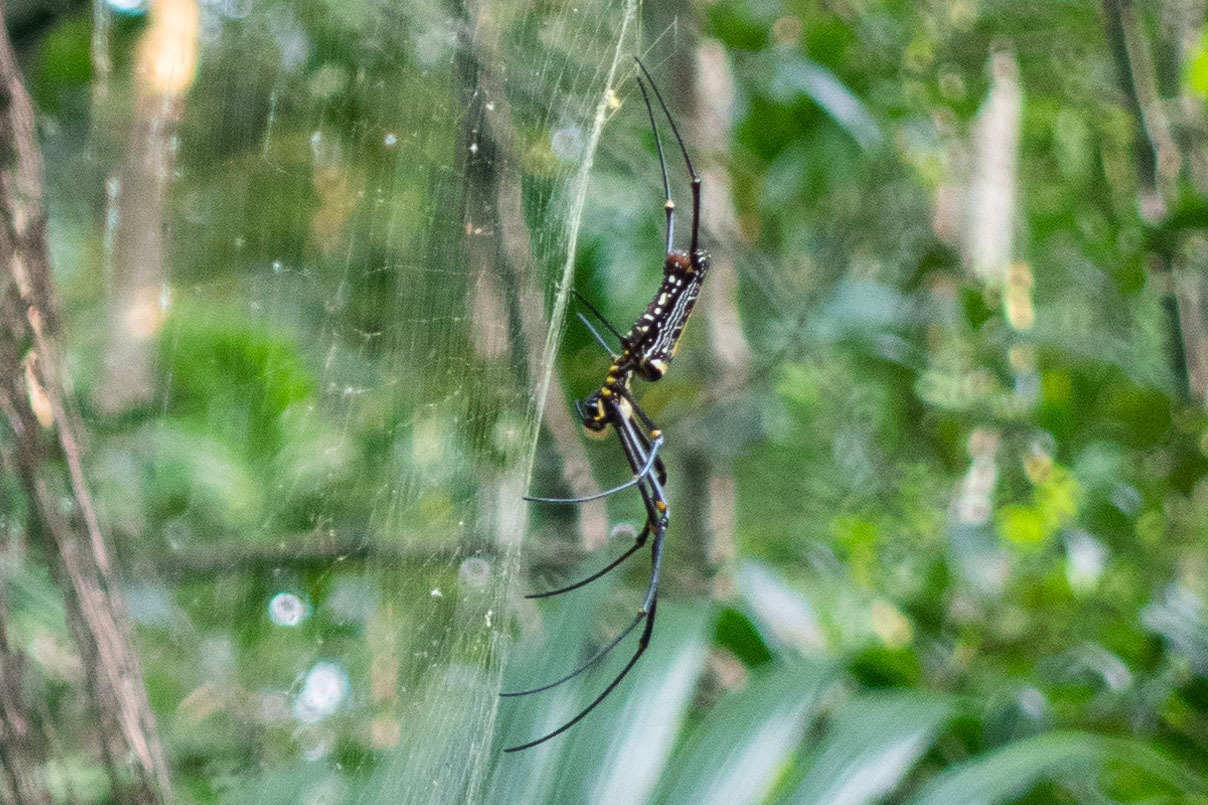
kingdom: Animalia
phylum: Arthropoda
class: Arachnida
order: Araneae
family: Araneidae
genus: Nephila
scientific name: Nephila pilipes
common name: Giant golden orb weaver
